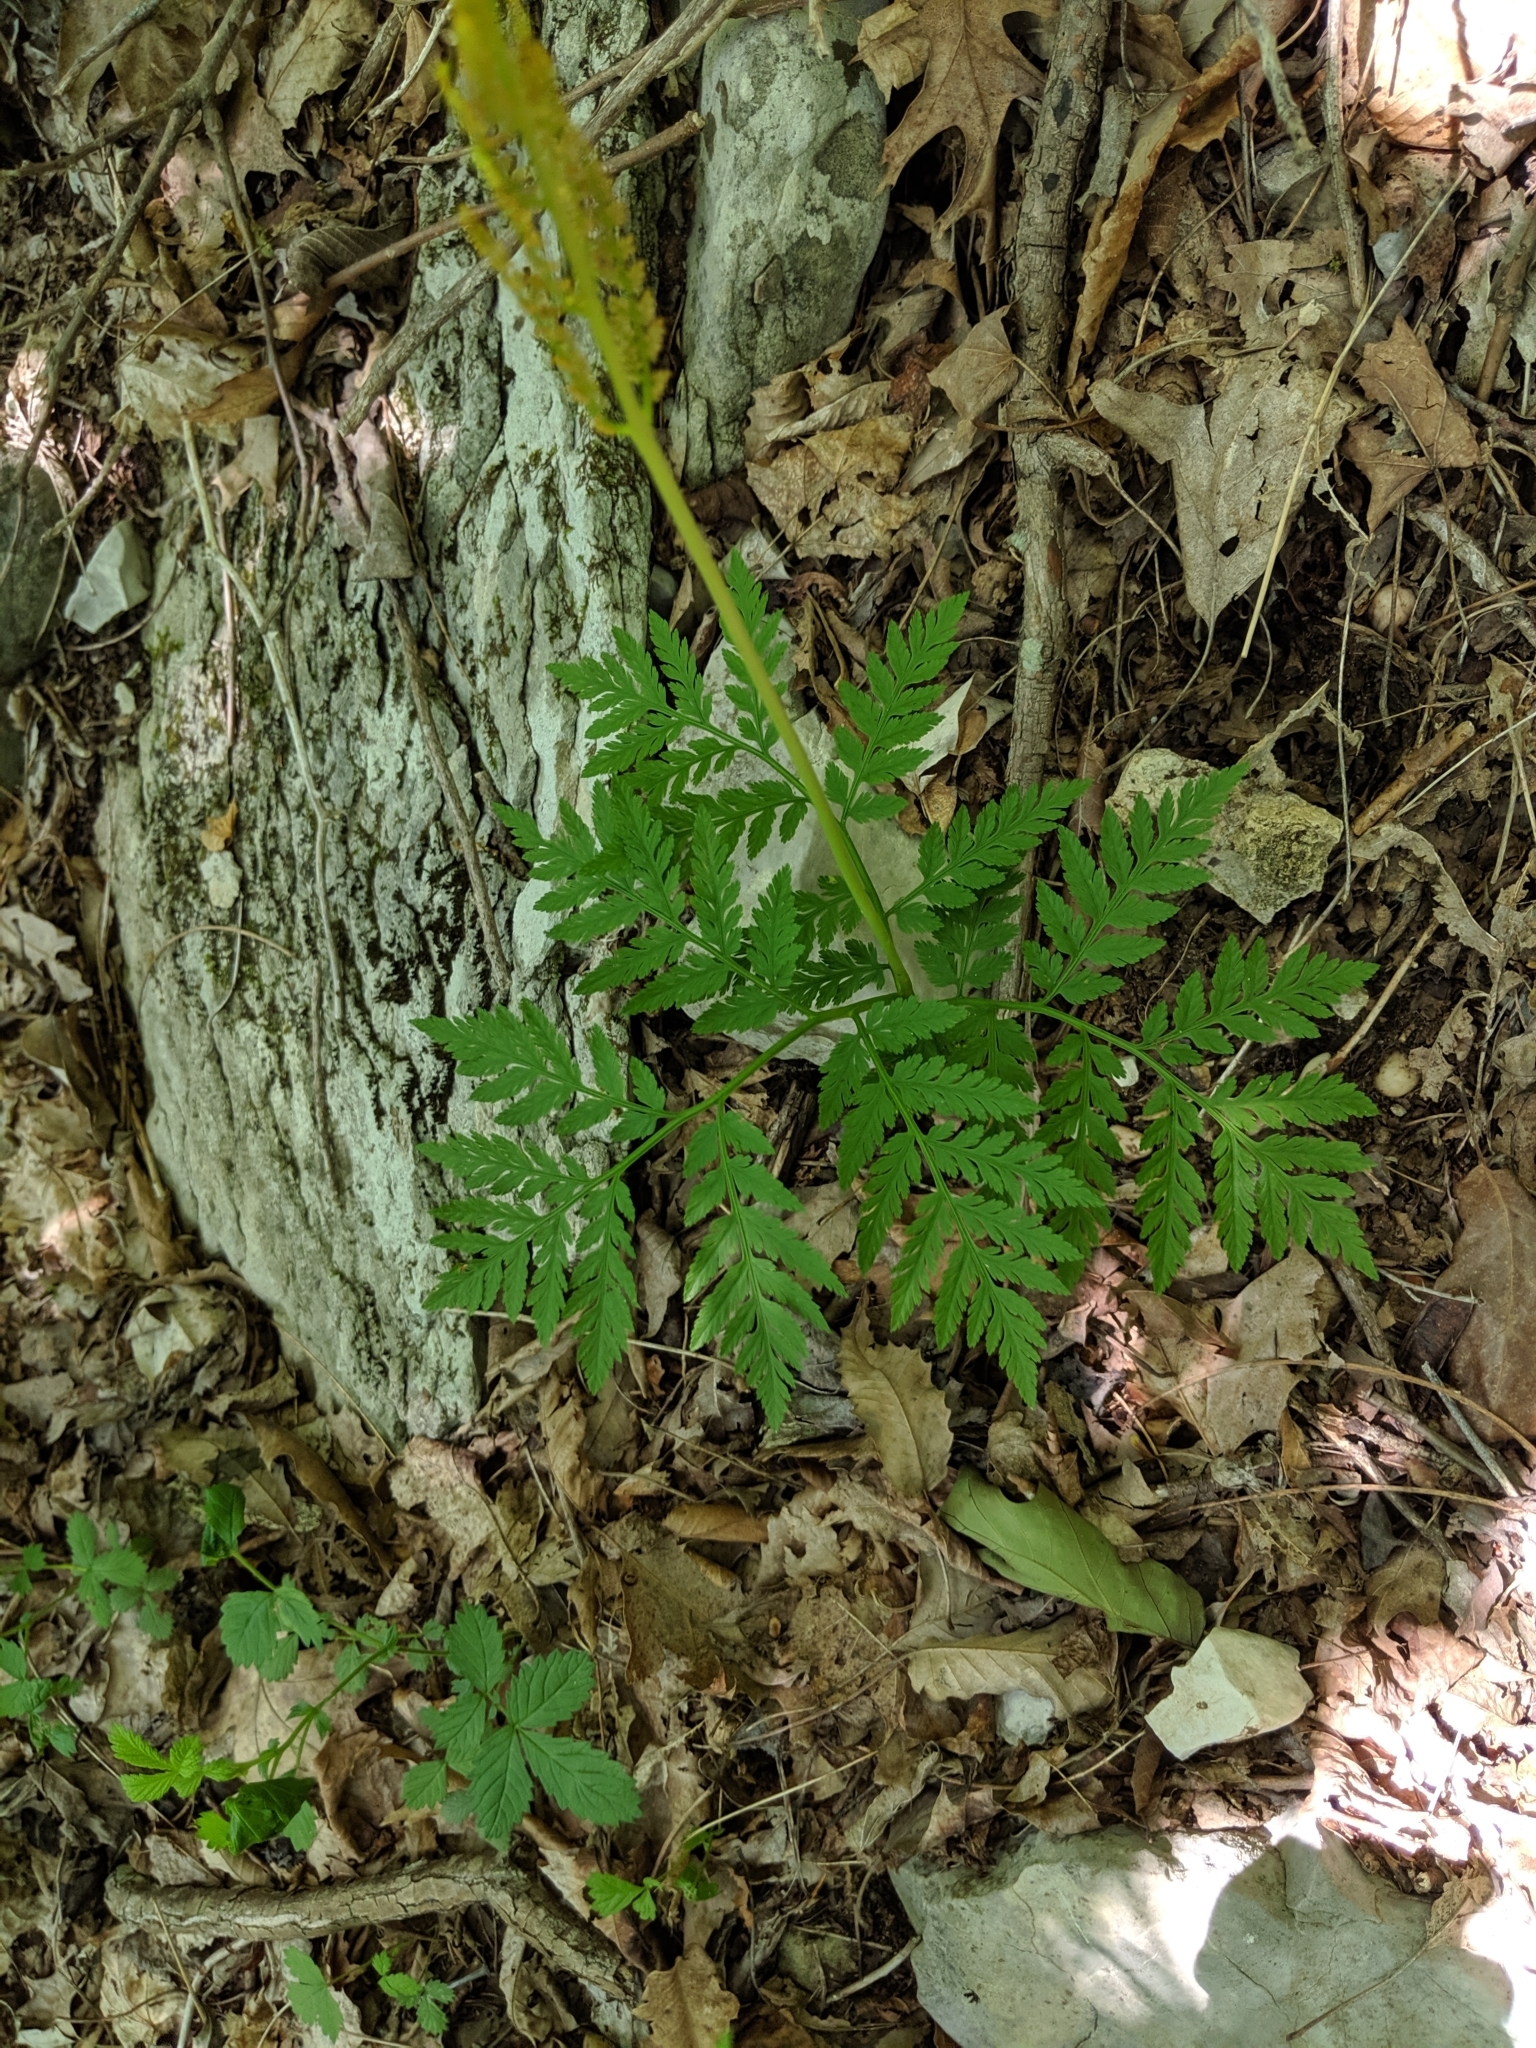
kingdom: Plantae
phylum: Tracheophyta
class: Polypodiopsida
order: Ophioglossales
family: Ophioglossaceae
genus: Botrypus
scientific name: Botrypus virginianus
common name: Common grapefern
